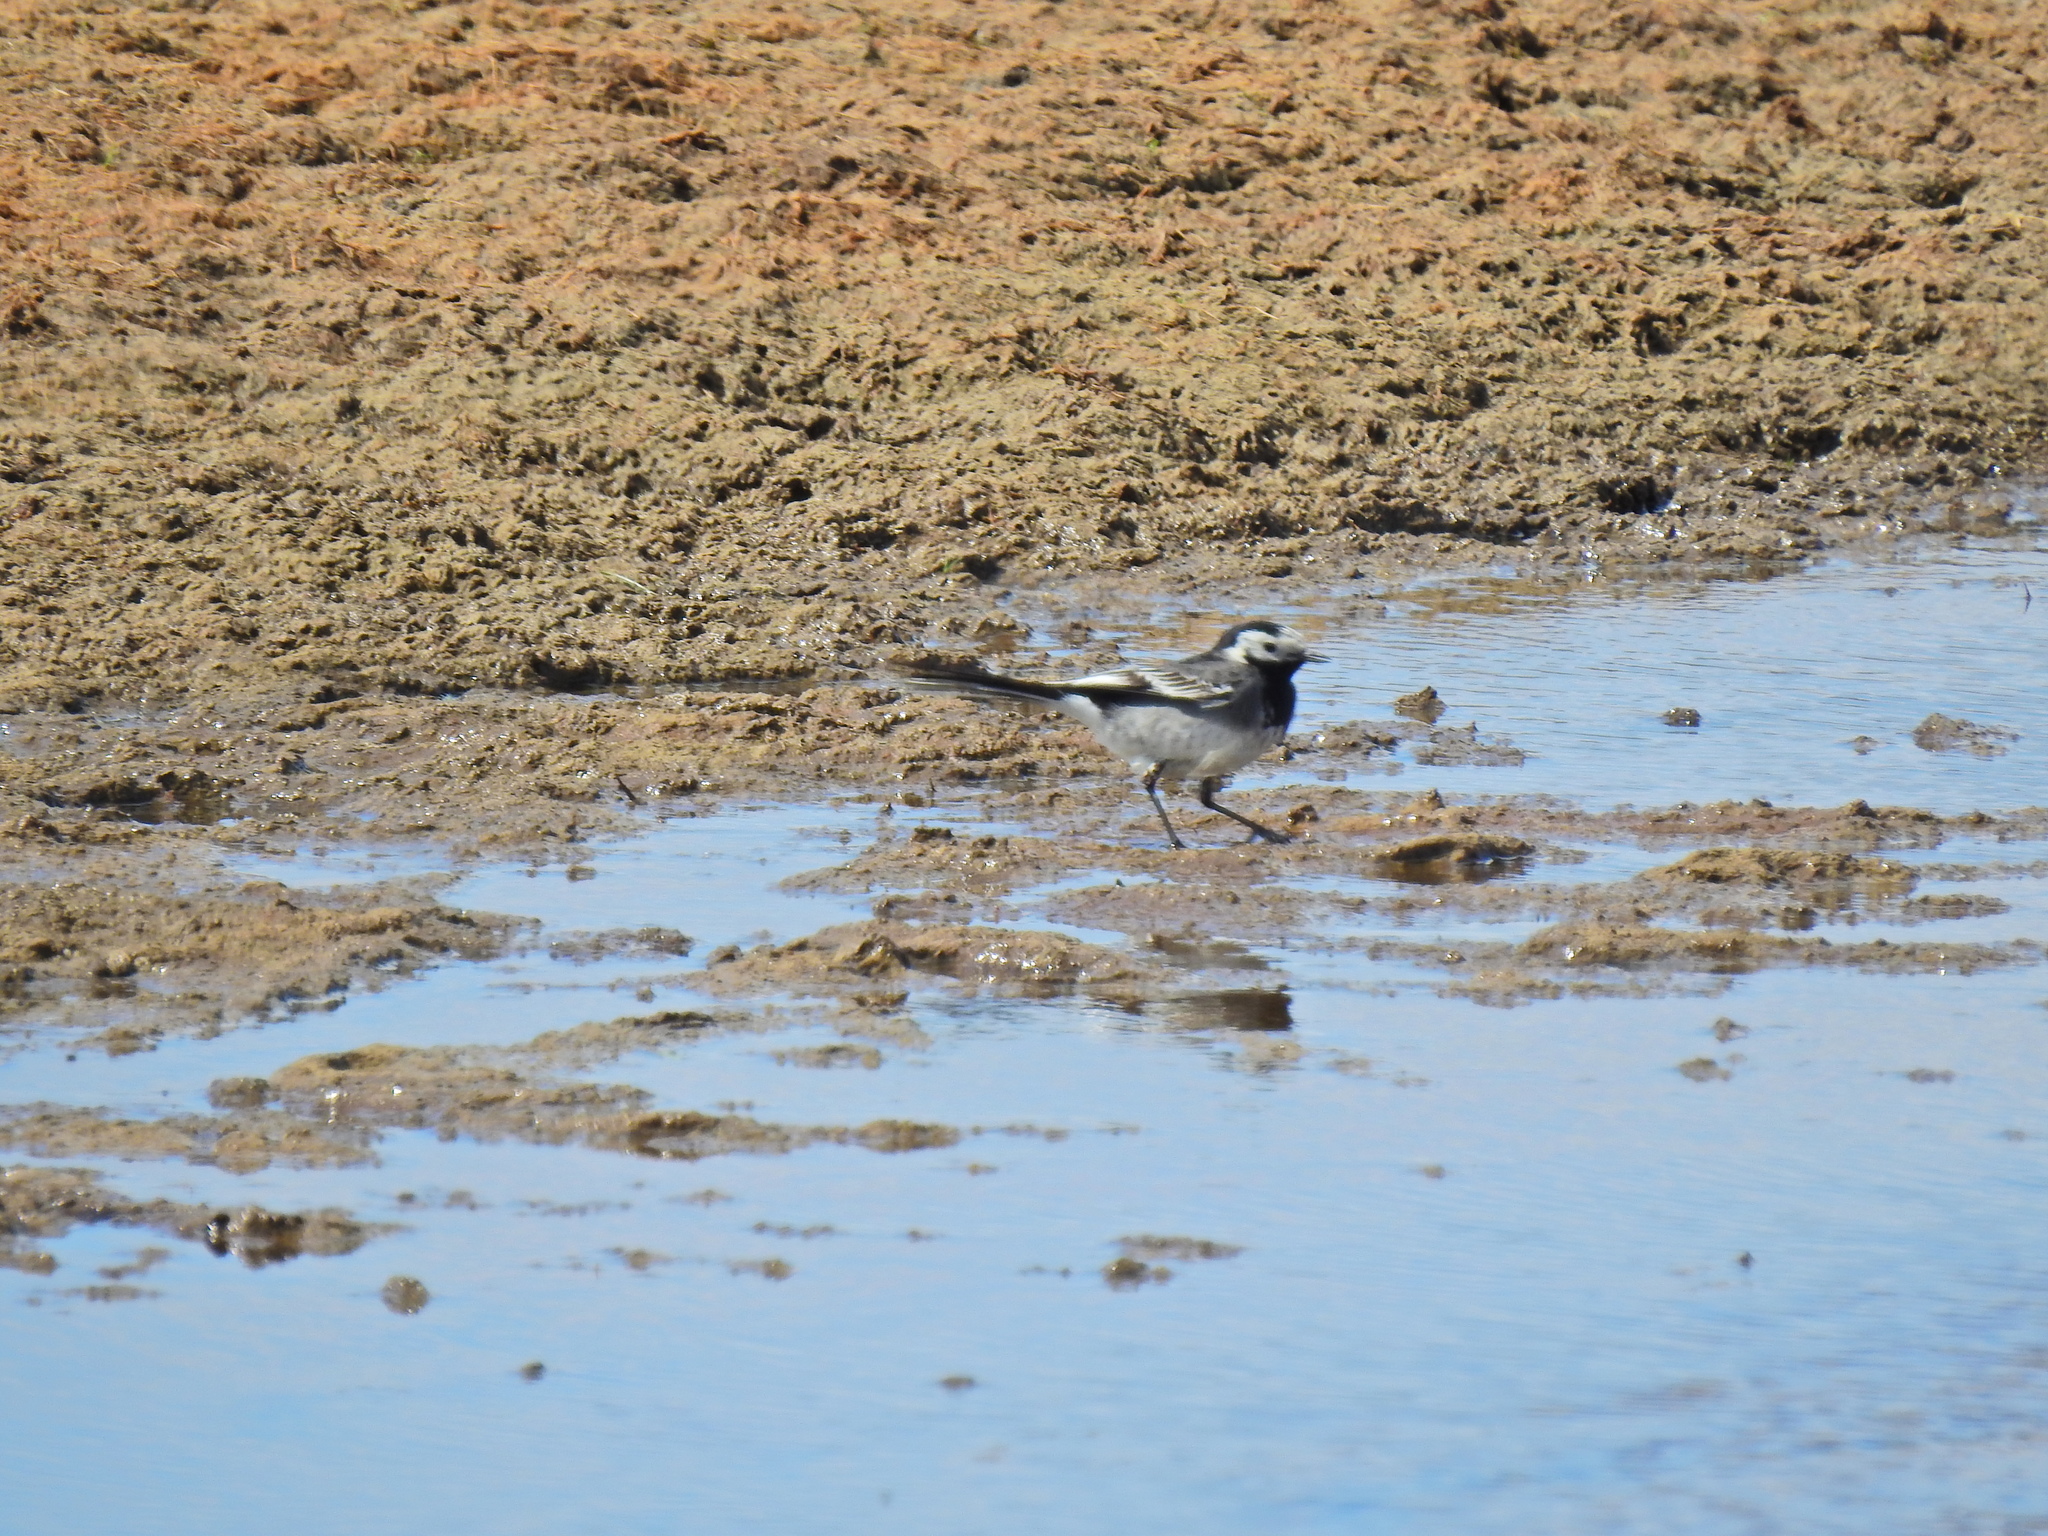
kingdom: Animalia
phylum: Chordata
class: Aves
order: Passeriformes
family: Motacillidae
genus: Motacilla
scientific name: Motacilla alba
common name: White wagtail
